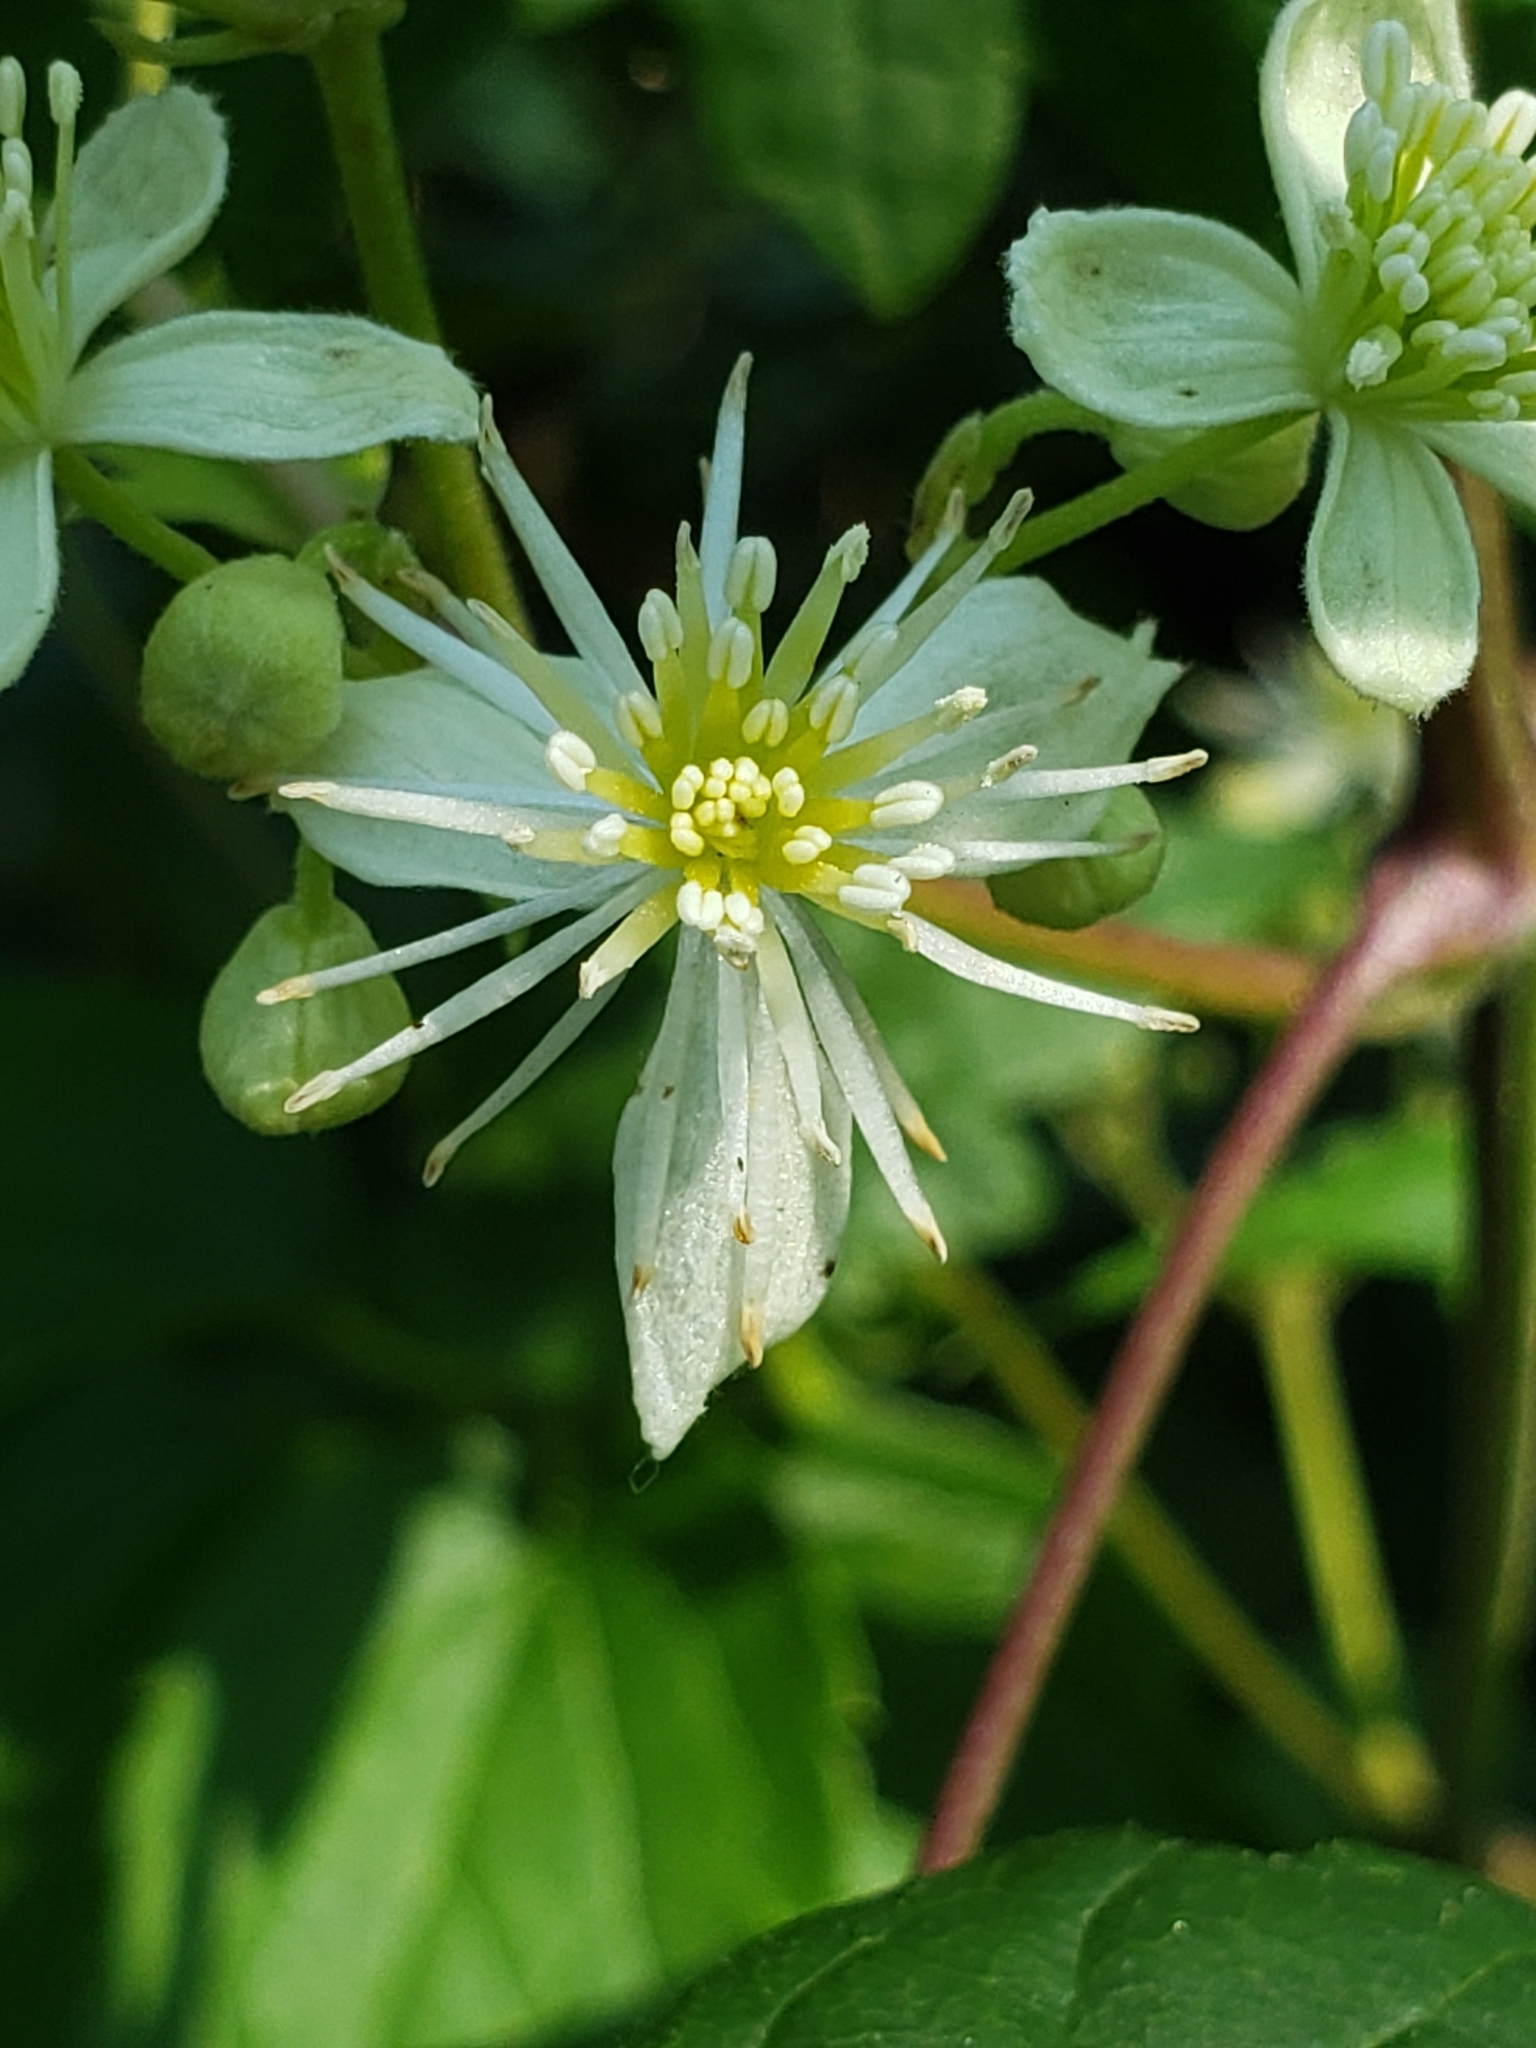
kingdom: Plantae
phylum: Tracheophyta
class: Magnoliopsida
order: Ranunculales
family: Ranunculaceae
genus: Clematis
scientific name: Clematis virginiana
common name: Virgin's-bower
